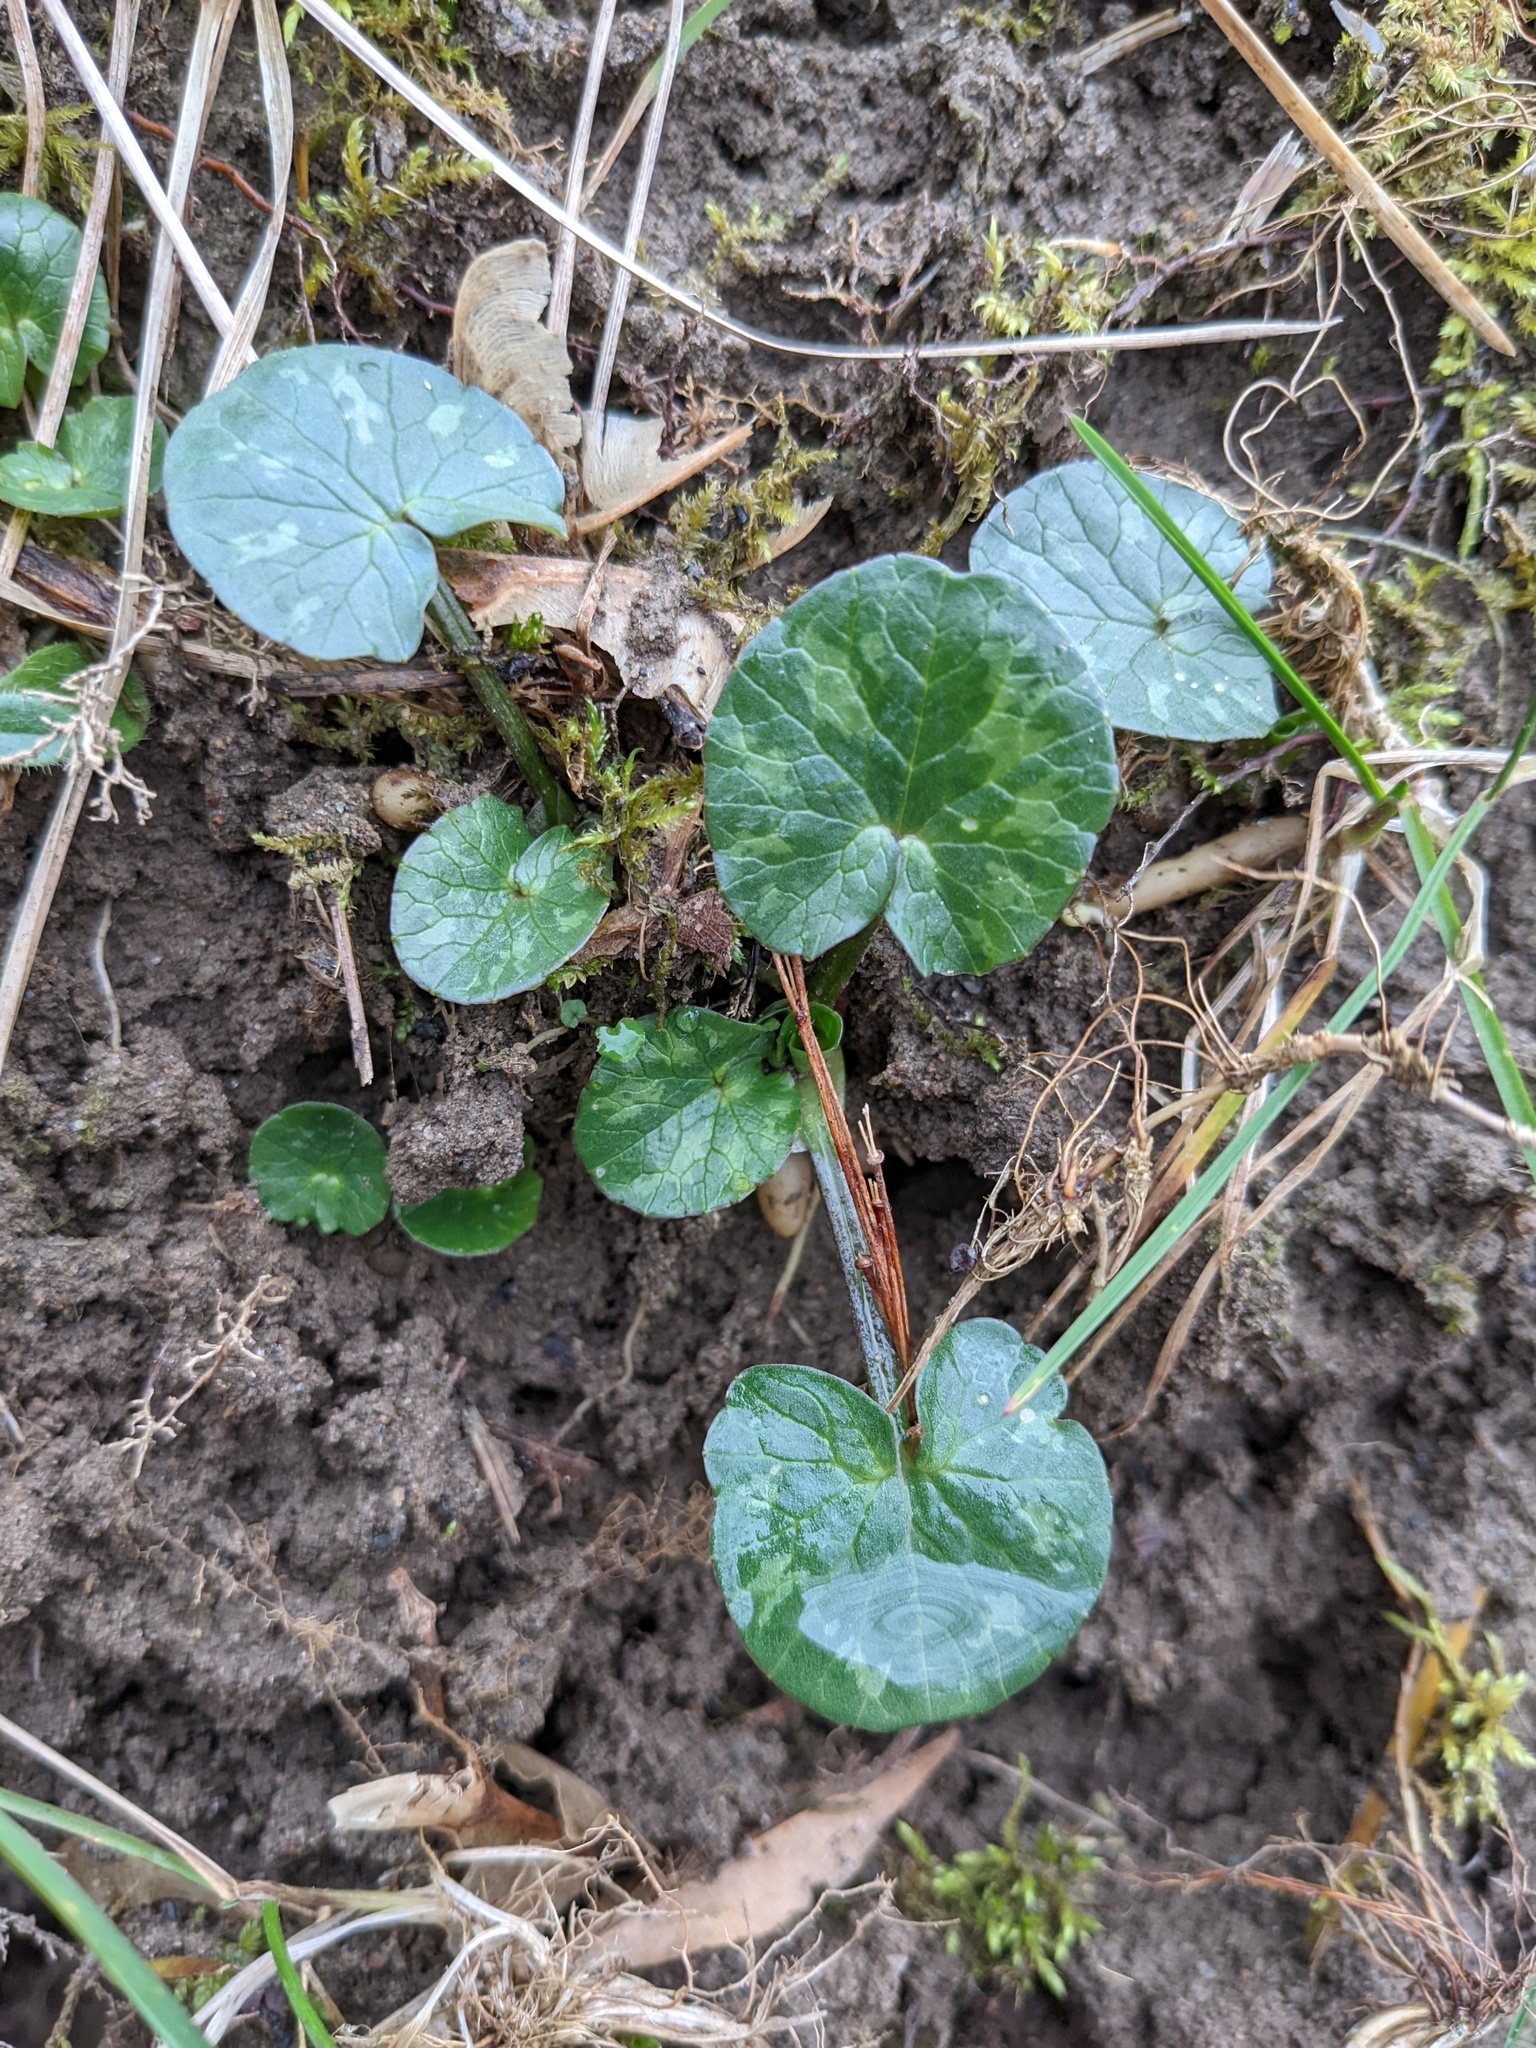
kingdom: Plantae
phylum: Tracheophyta
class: Magnoliopsida
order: Ranunculales
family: Ranunculaceae
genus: Ficaria
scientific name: Ficaria verna
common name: Lesser celandine
